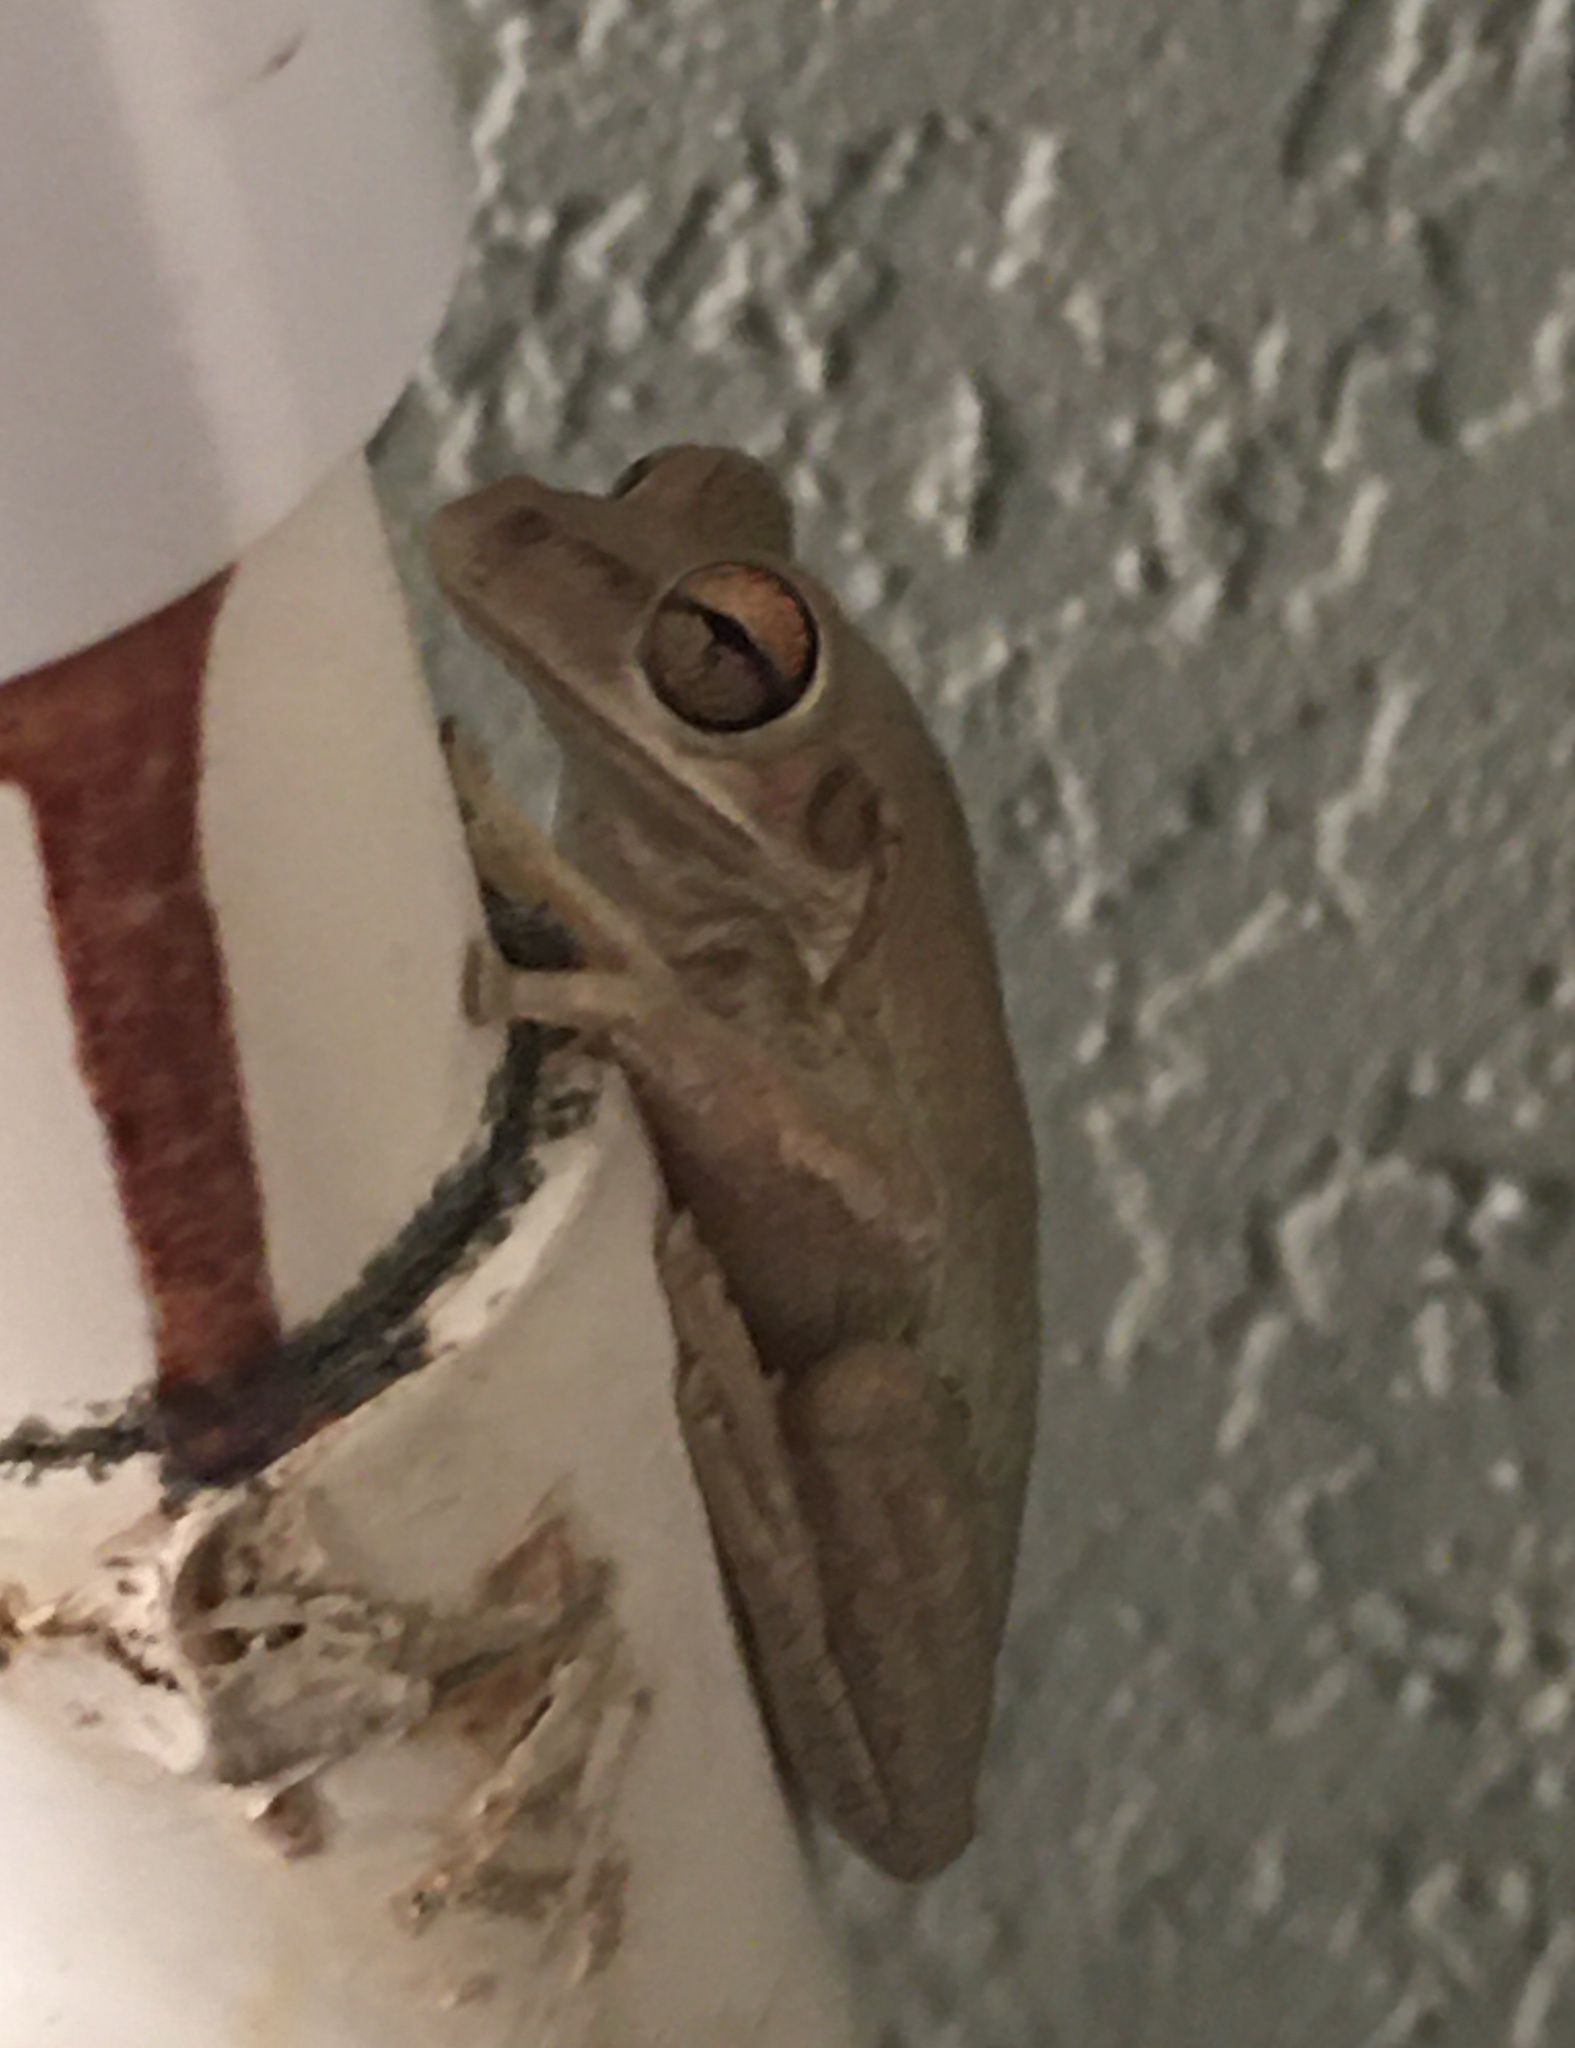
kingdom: Animalia
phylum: Chordata
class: Amphibia
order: Anura
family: Hylidae
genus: Osteopilus
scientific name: Osteopilus septentrionalis
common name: Cuban treefrog
